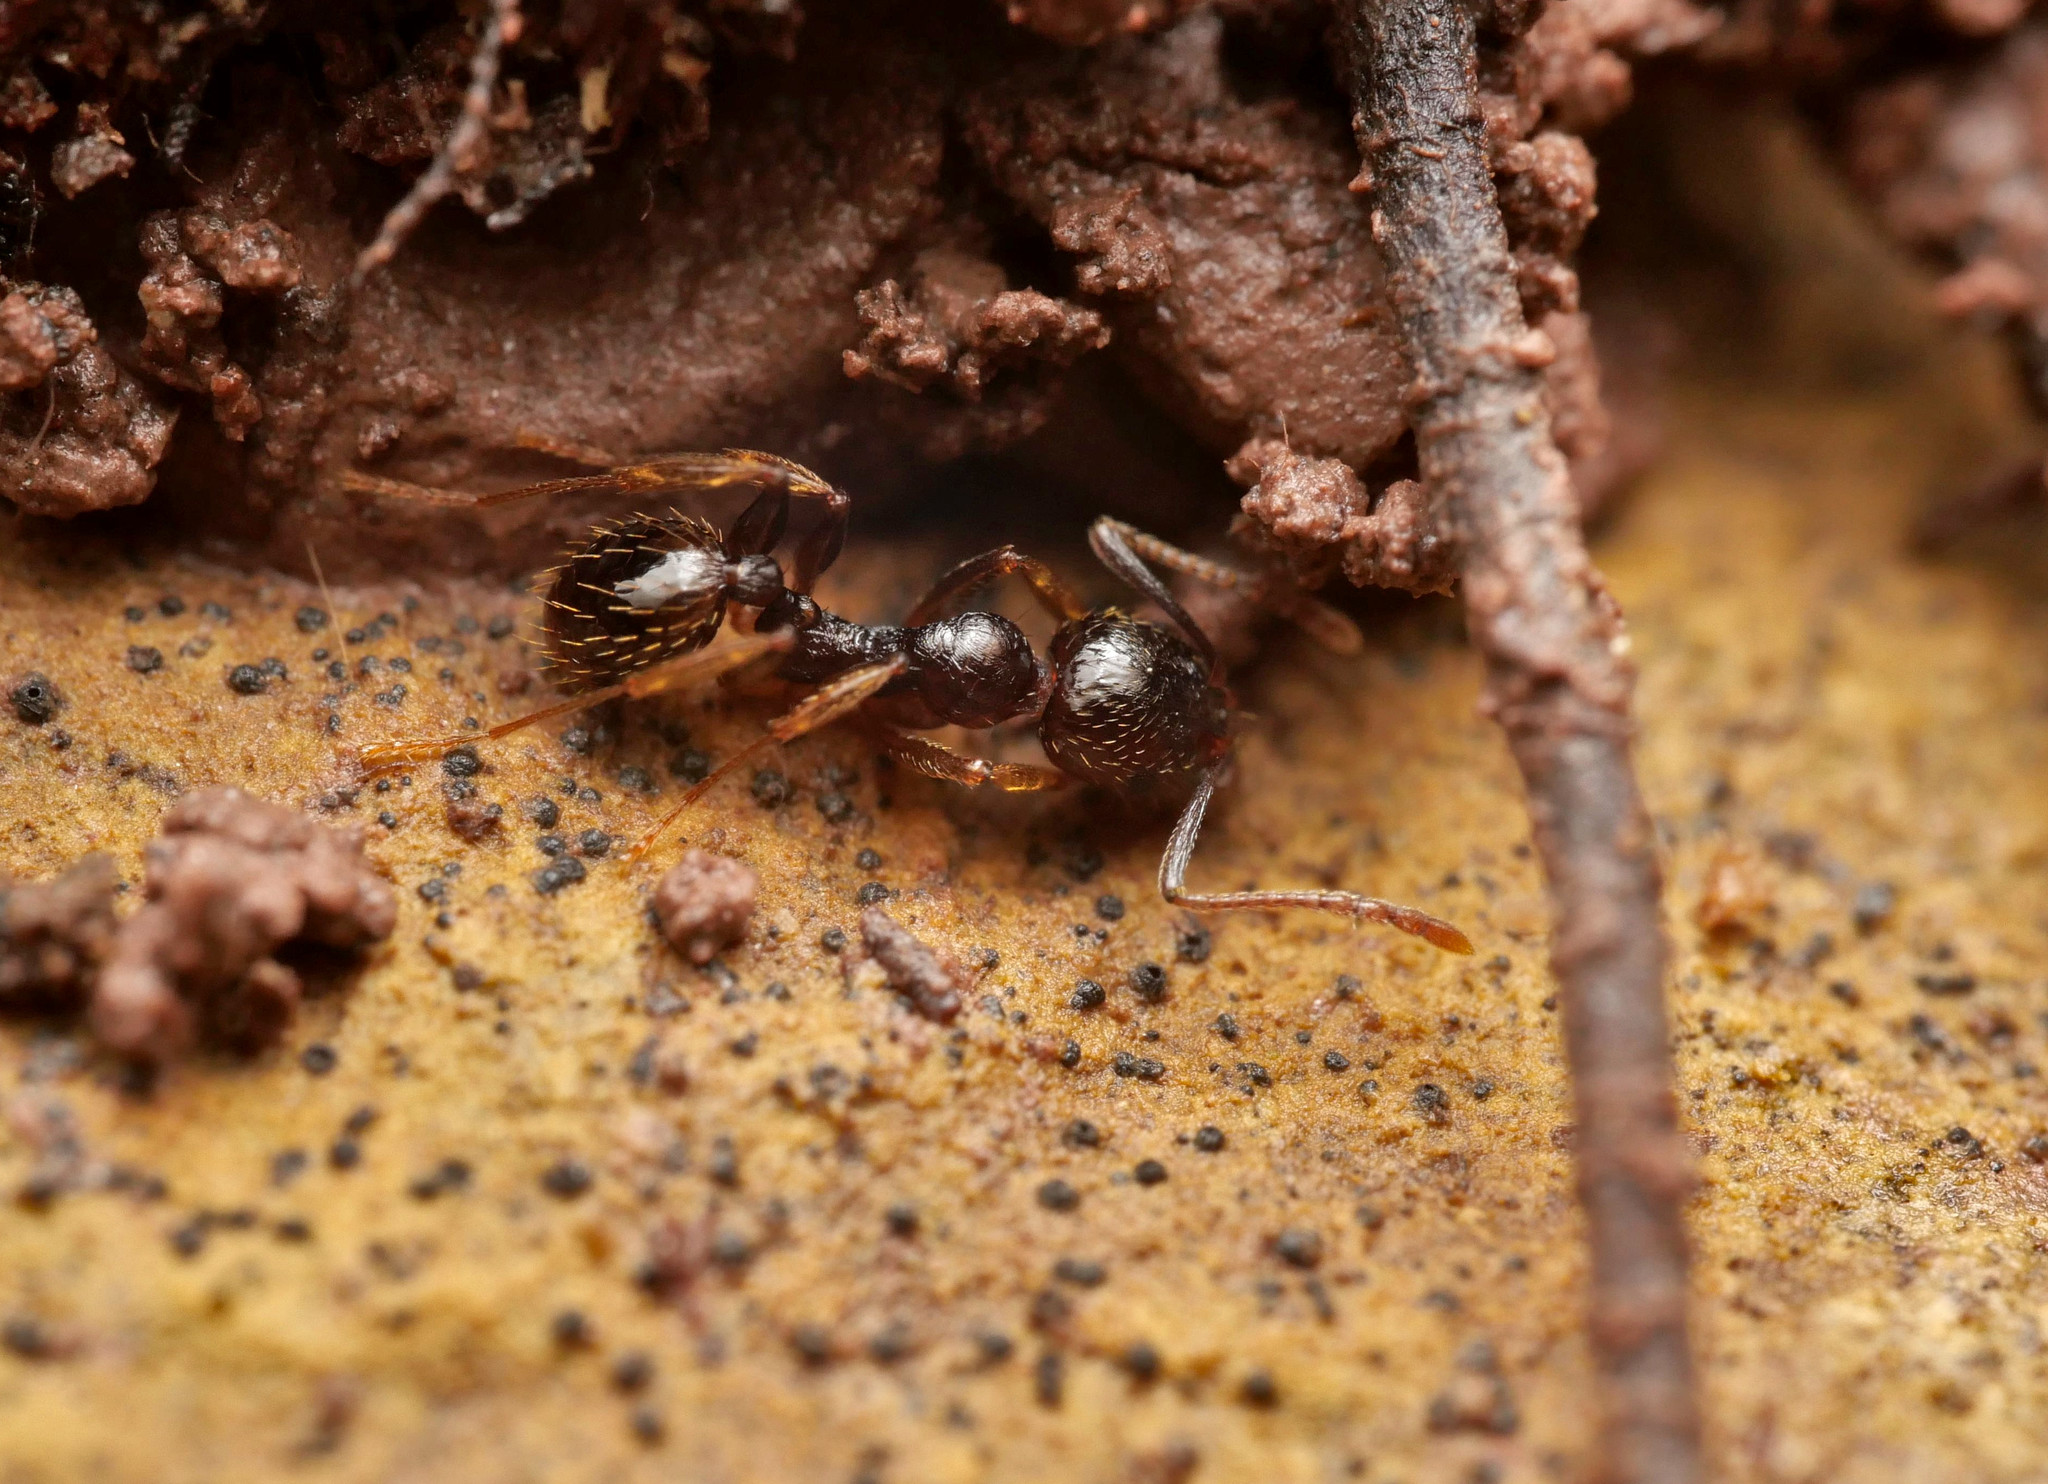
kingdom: Animalia
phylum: Arthropoda
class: Insecta
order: Hymenoptera
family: Formicidae
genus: Aphaenogaster
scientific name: Aphaenogaster subterranea
